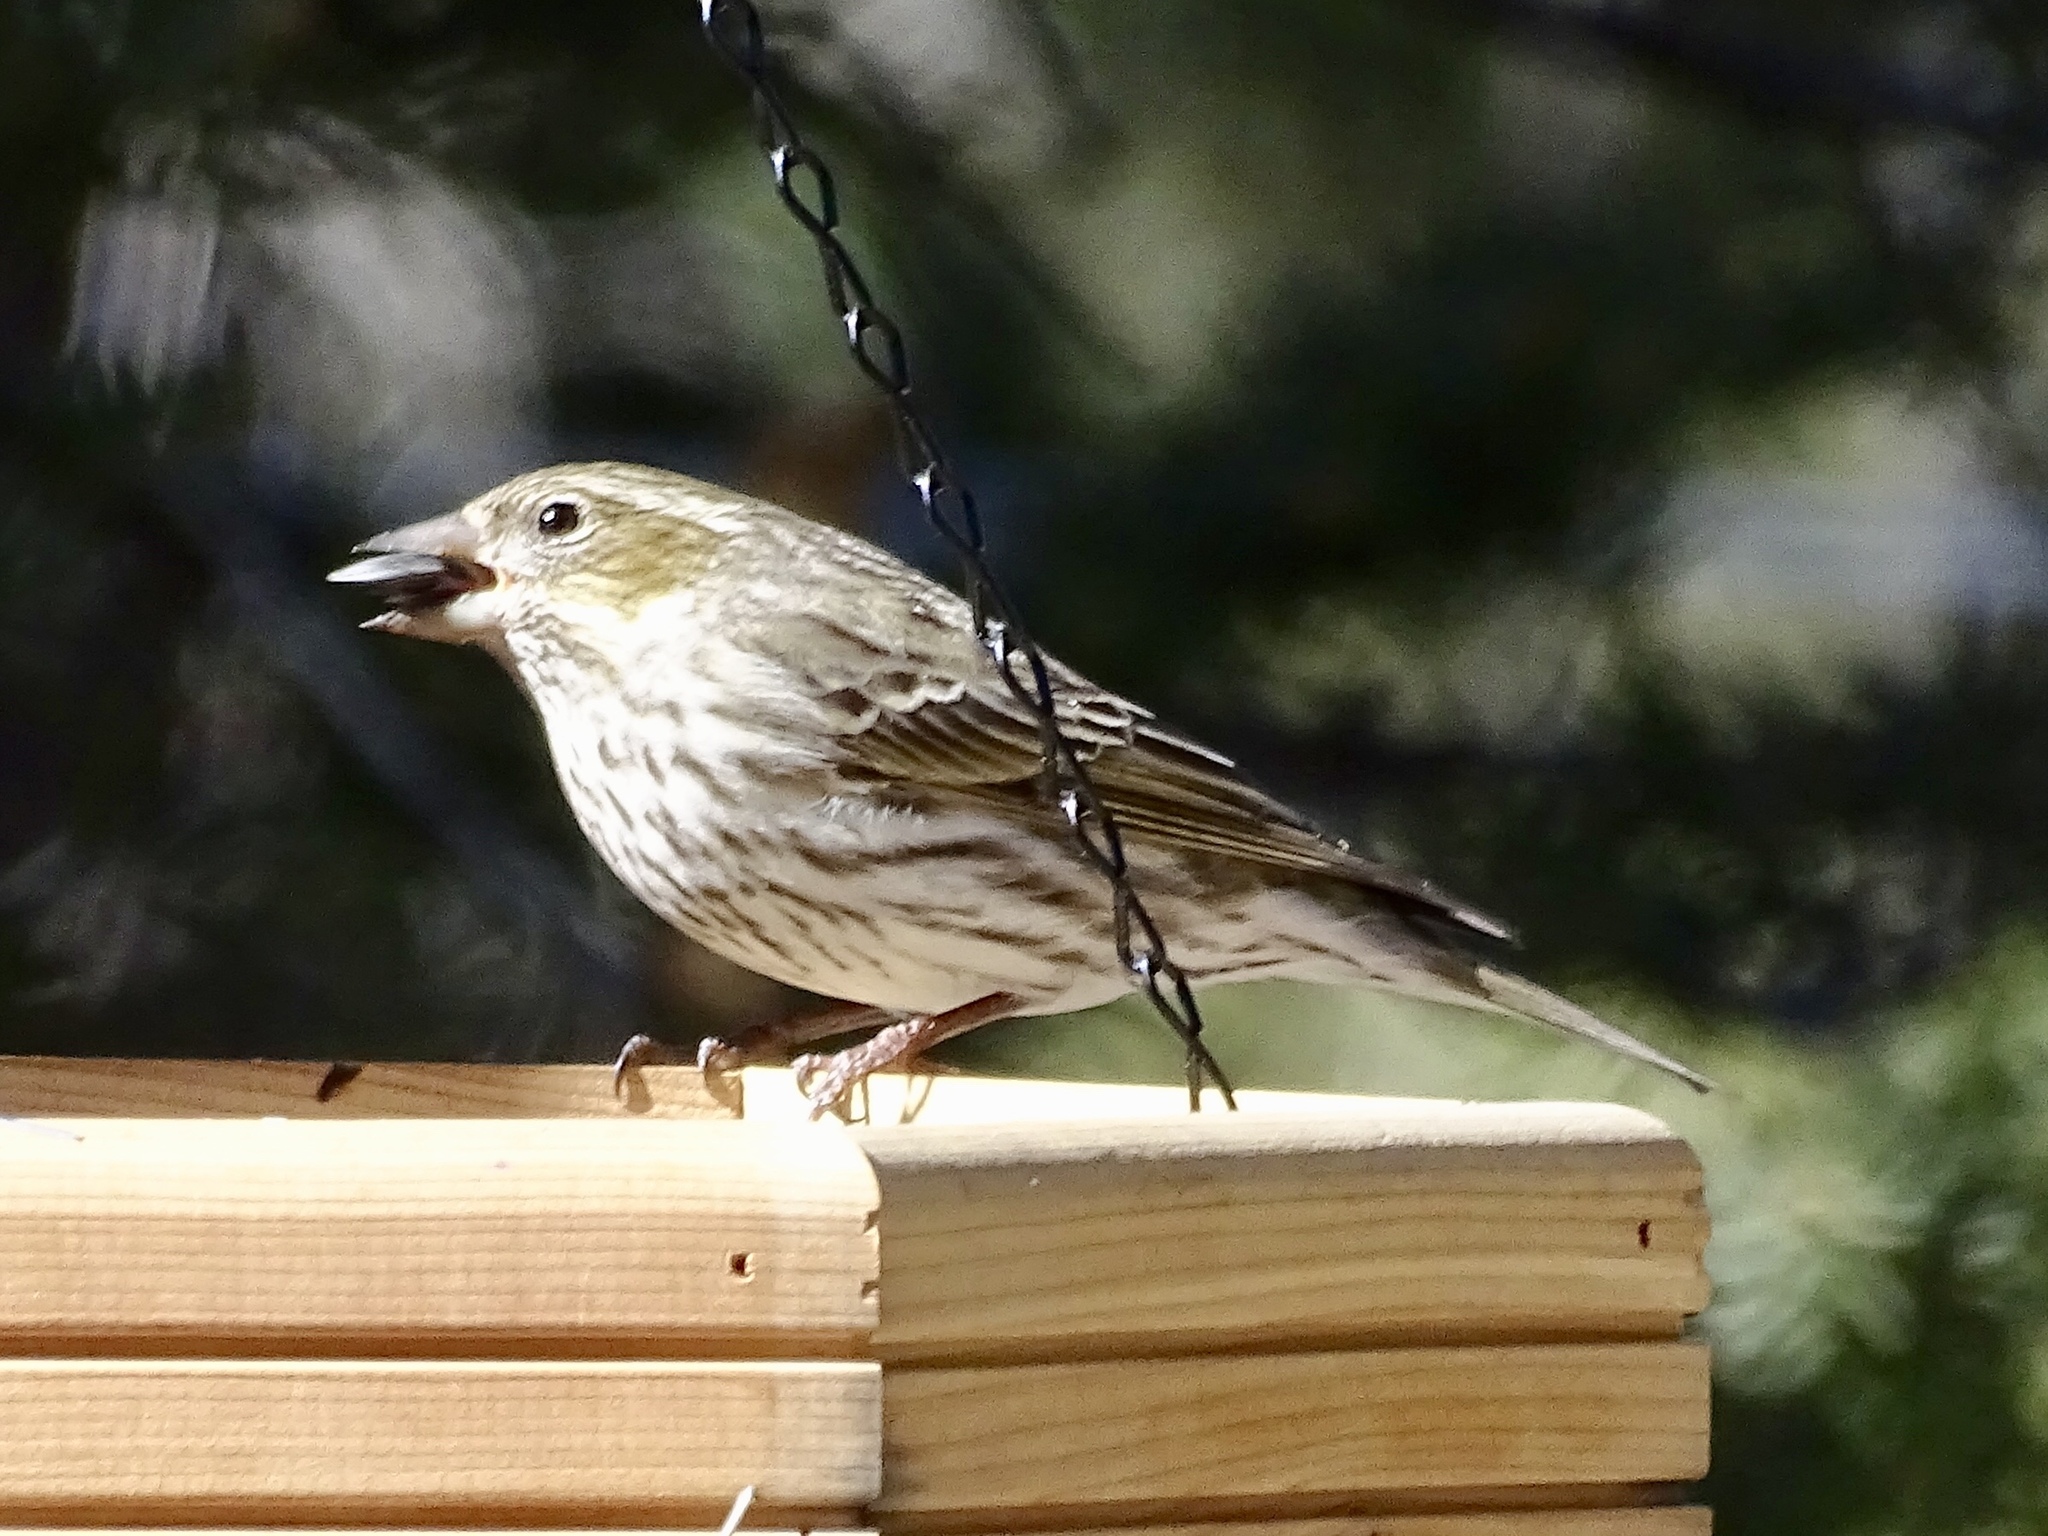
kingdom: Animalia
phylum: Chordata
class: Aves
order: Passeriformes
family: Fringillidae
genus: Haemorhous
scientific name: Haemorhous cassinii
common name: Cassin's finch
